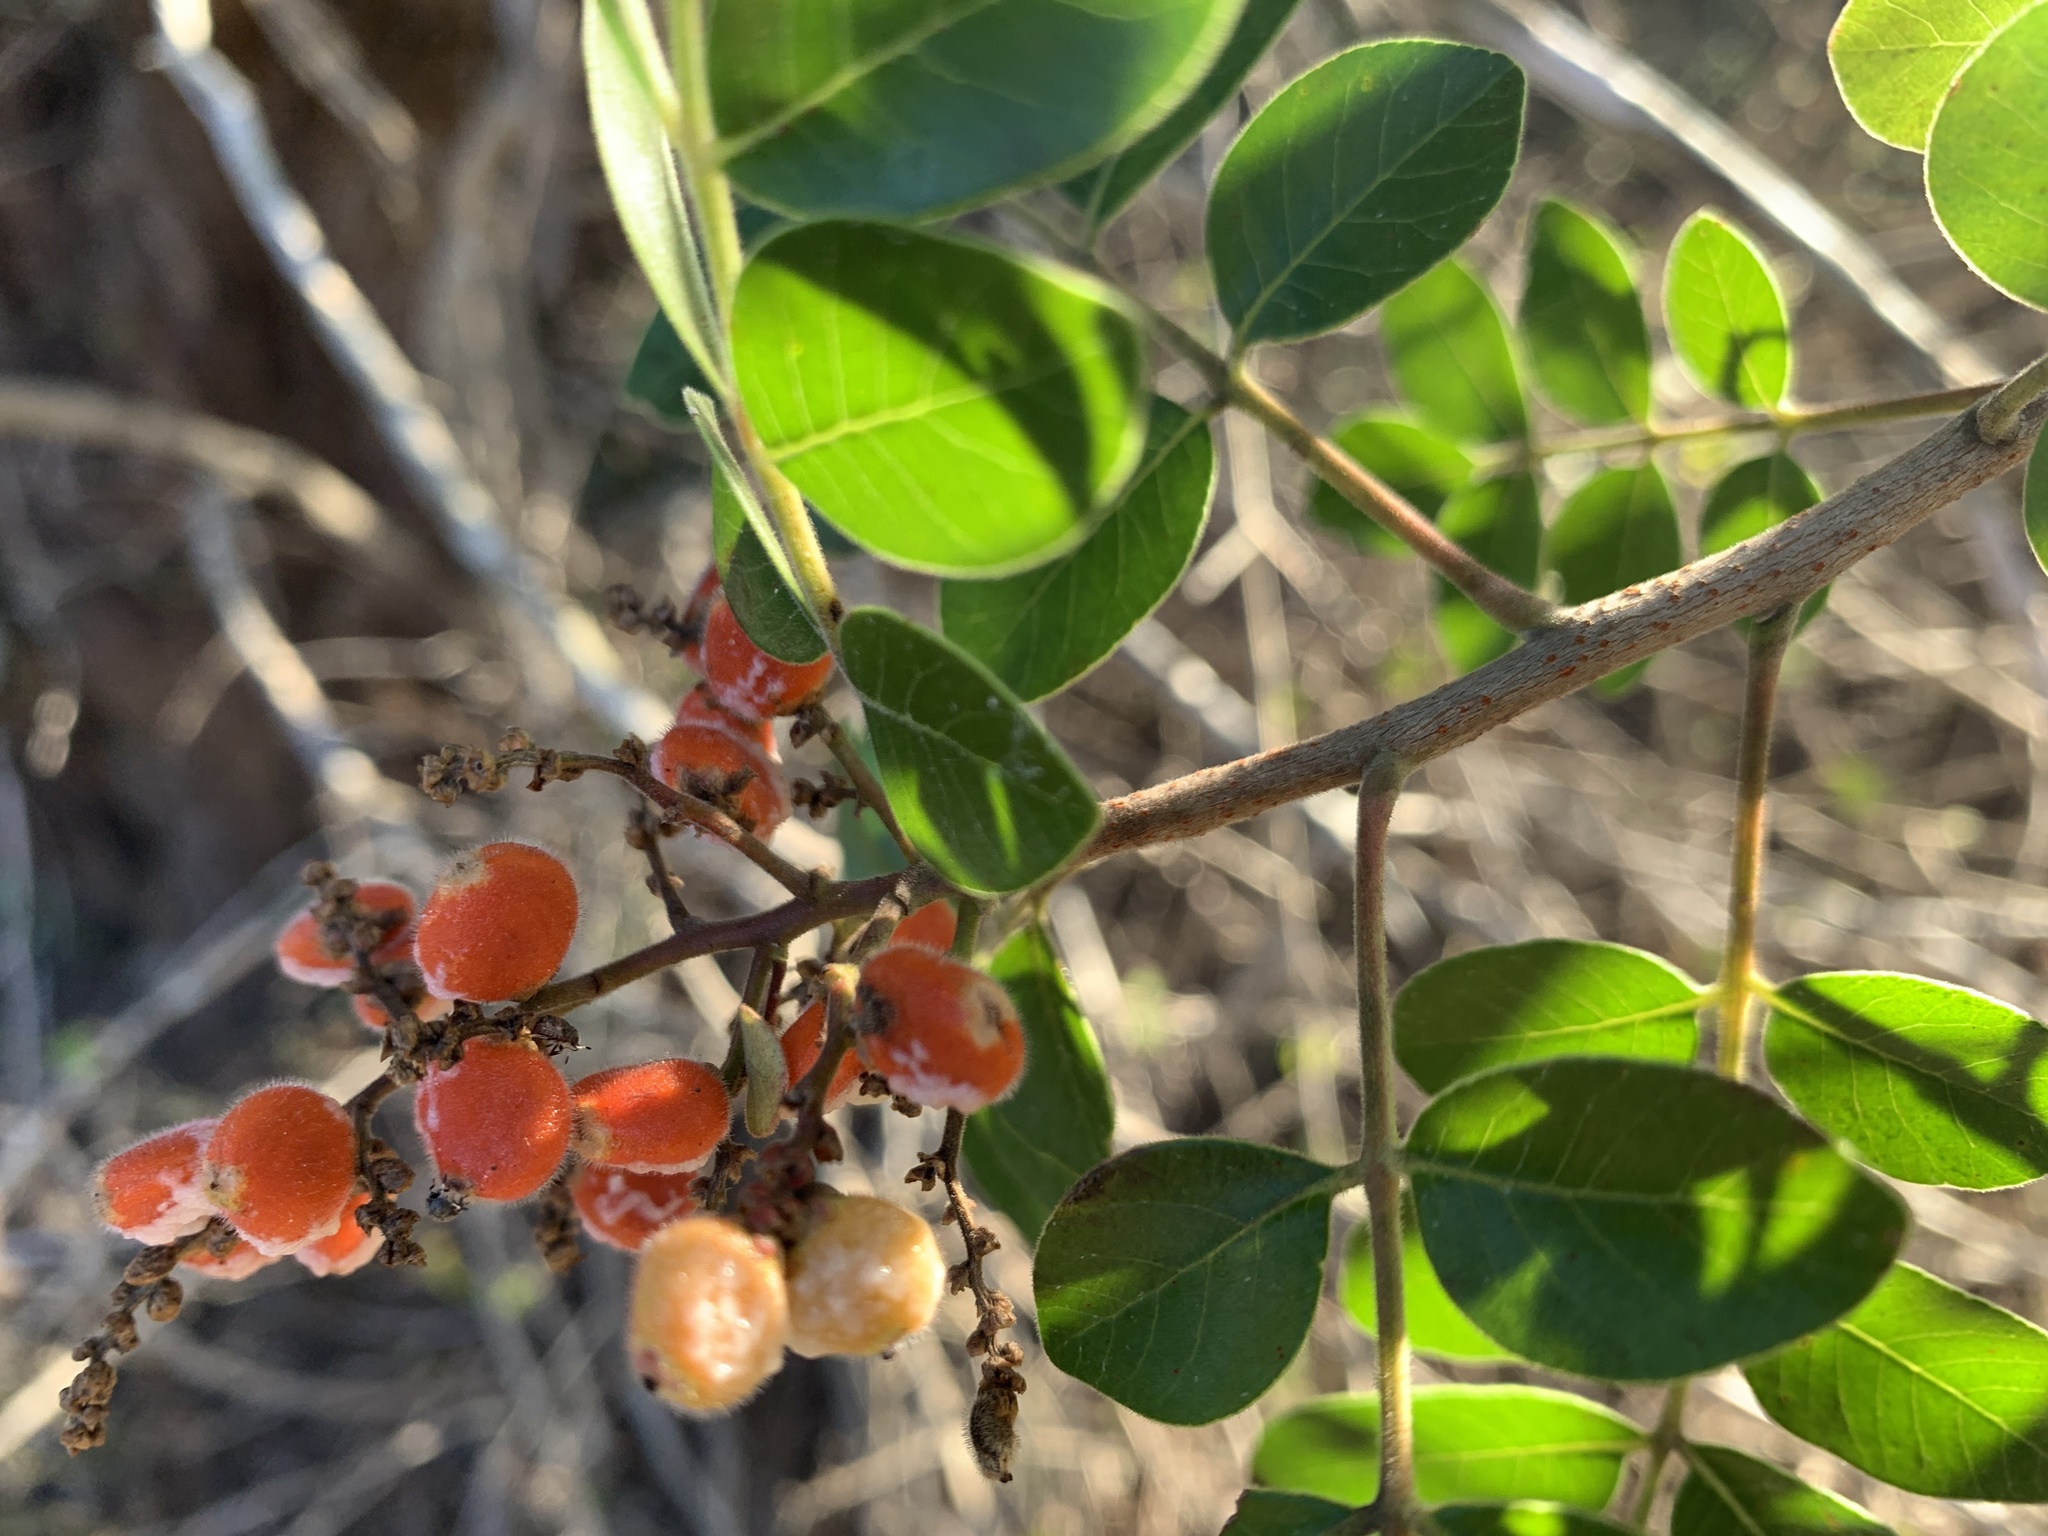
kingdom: Plantae
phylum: Tracheophyta
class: Magnoliopsida
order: Sapindales
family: Anacardiaceae
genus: Rhus
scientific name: Rhus virens
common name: Evergreen sumac
